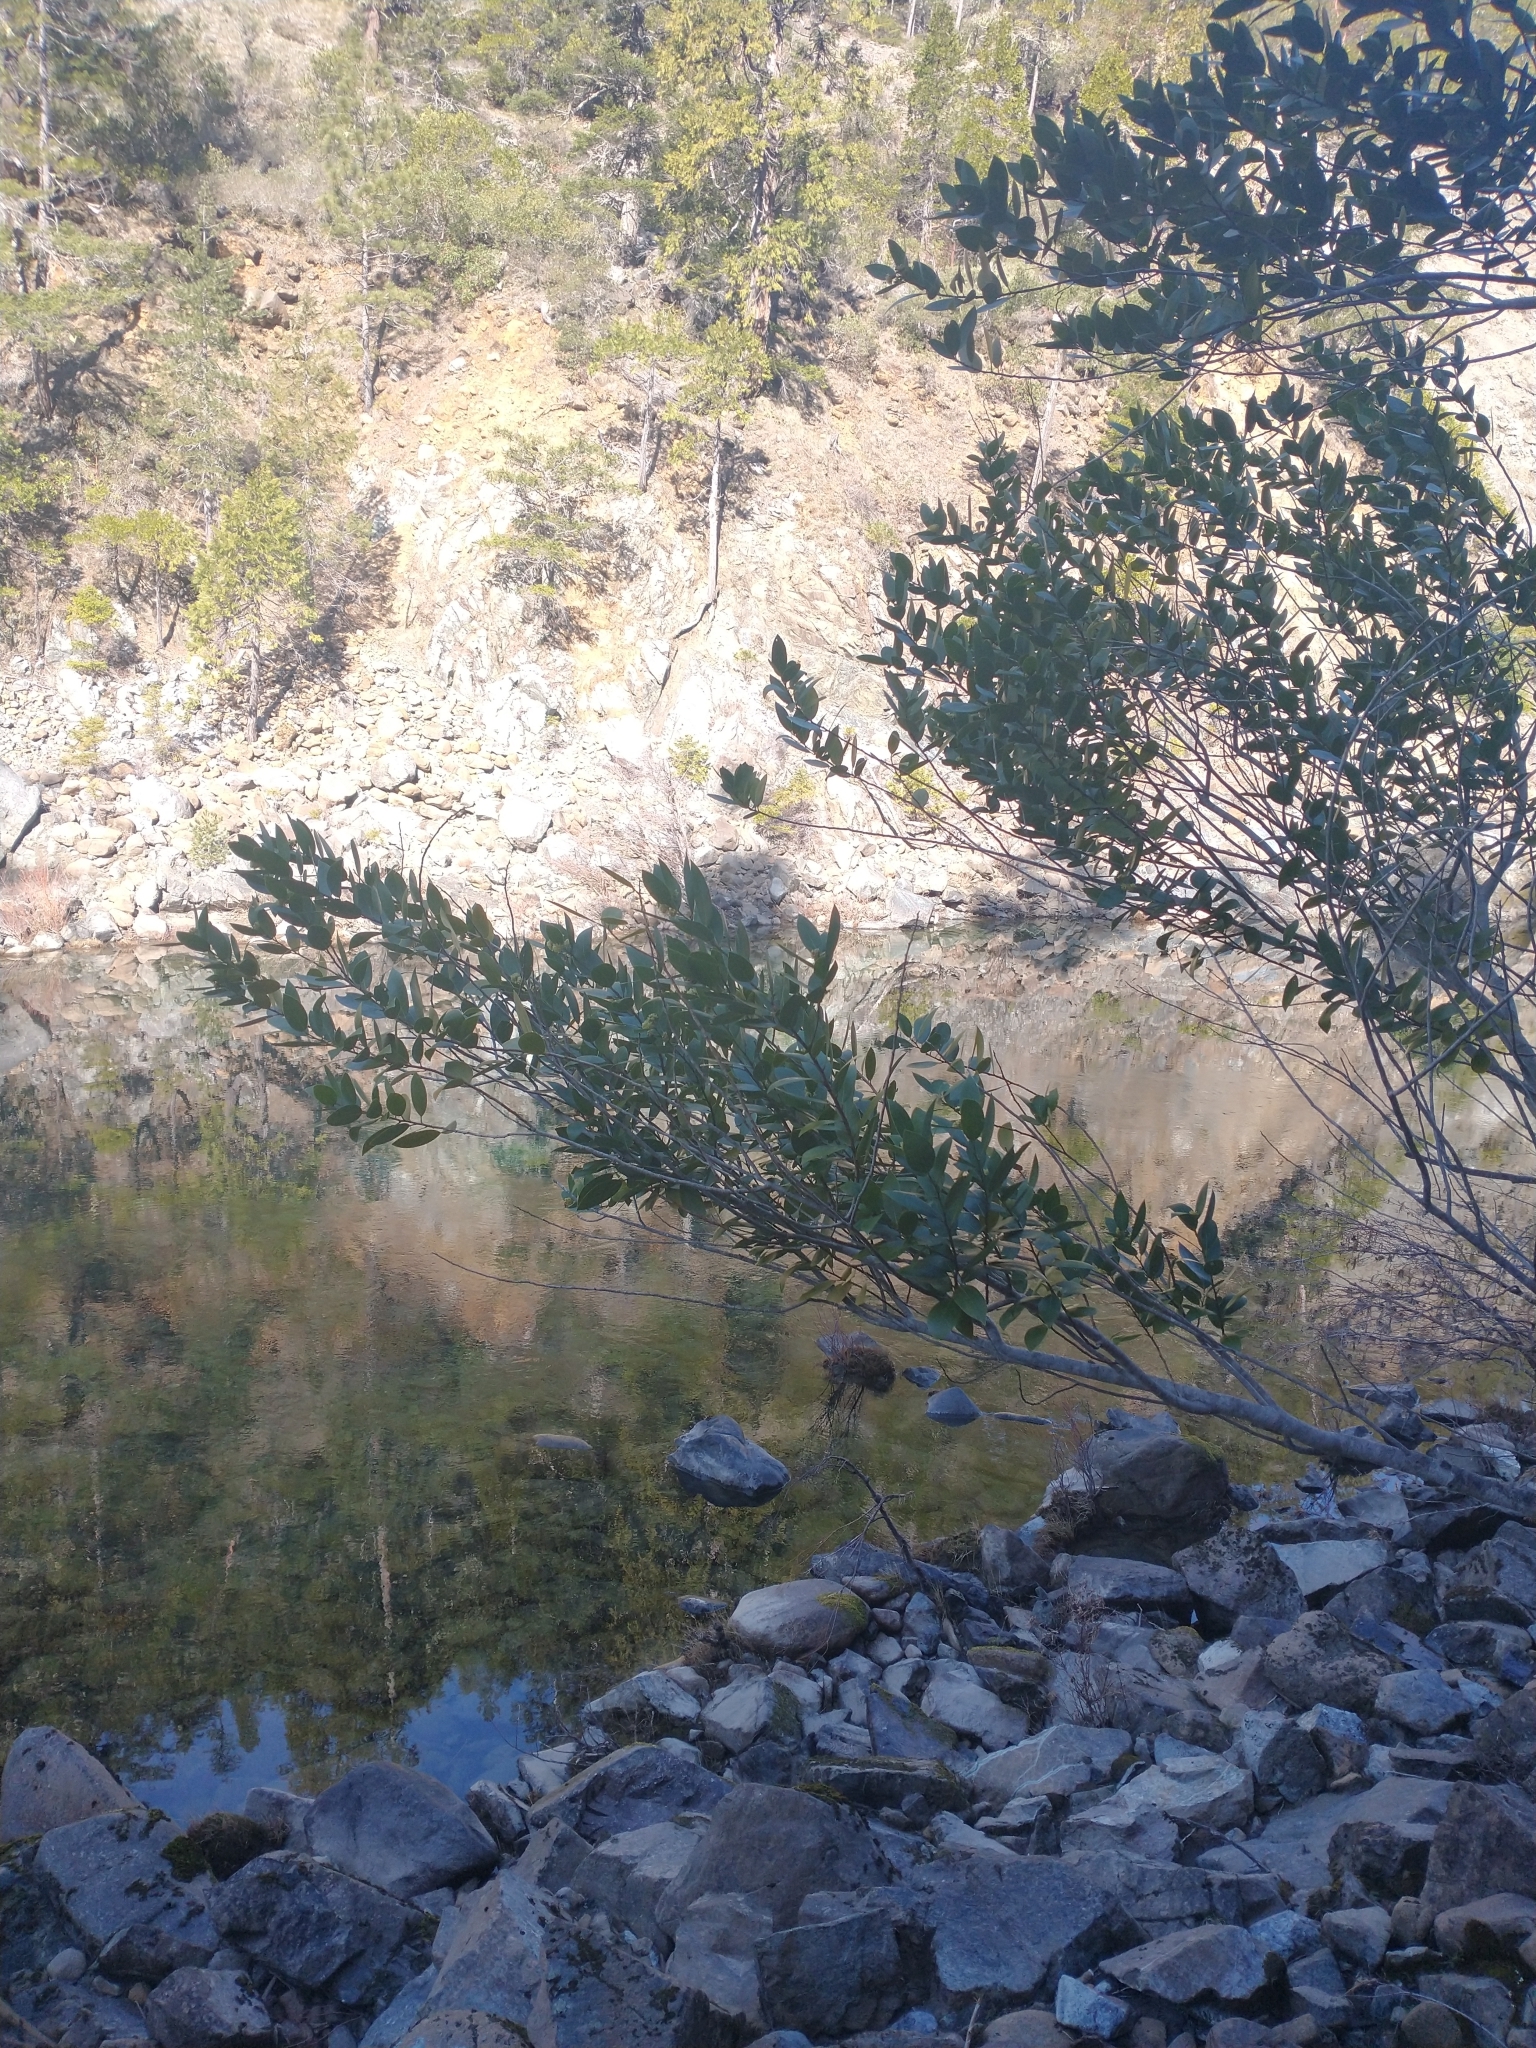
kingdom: Plantae
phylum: Tracheophyta
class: Magnoliopsida
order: Laurales
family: Lauraceae
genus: Umbellularia
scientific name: Umbellularia californica
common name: California bay
